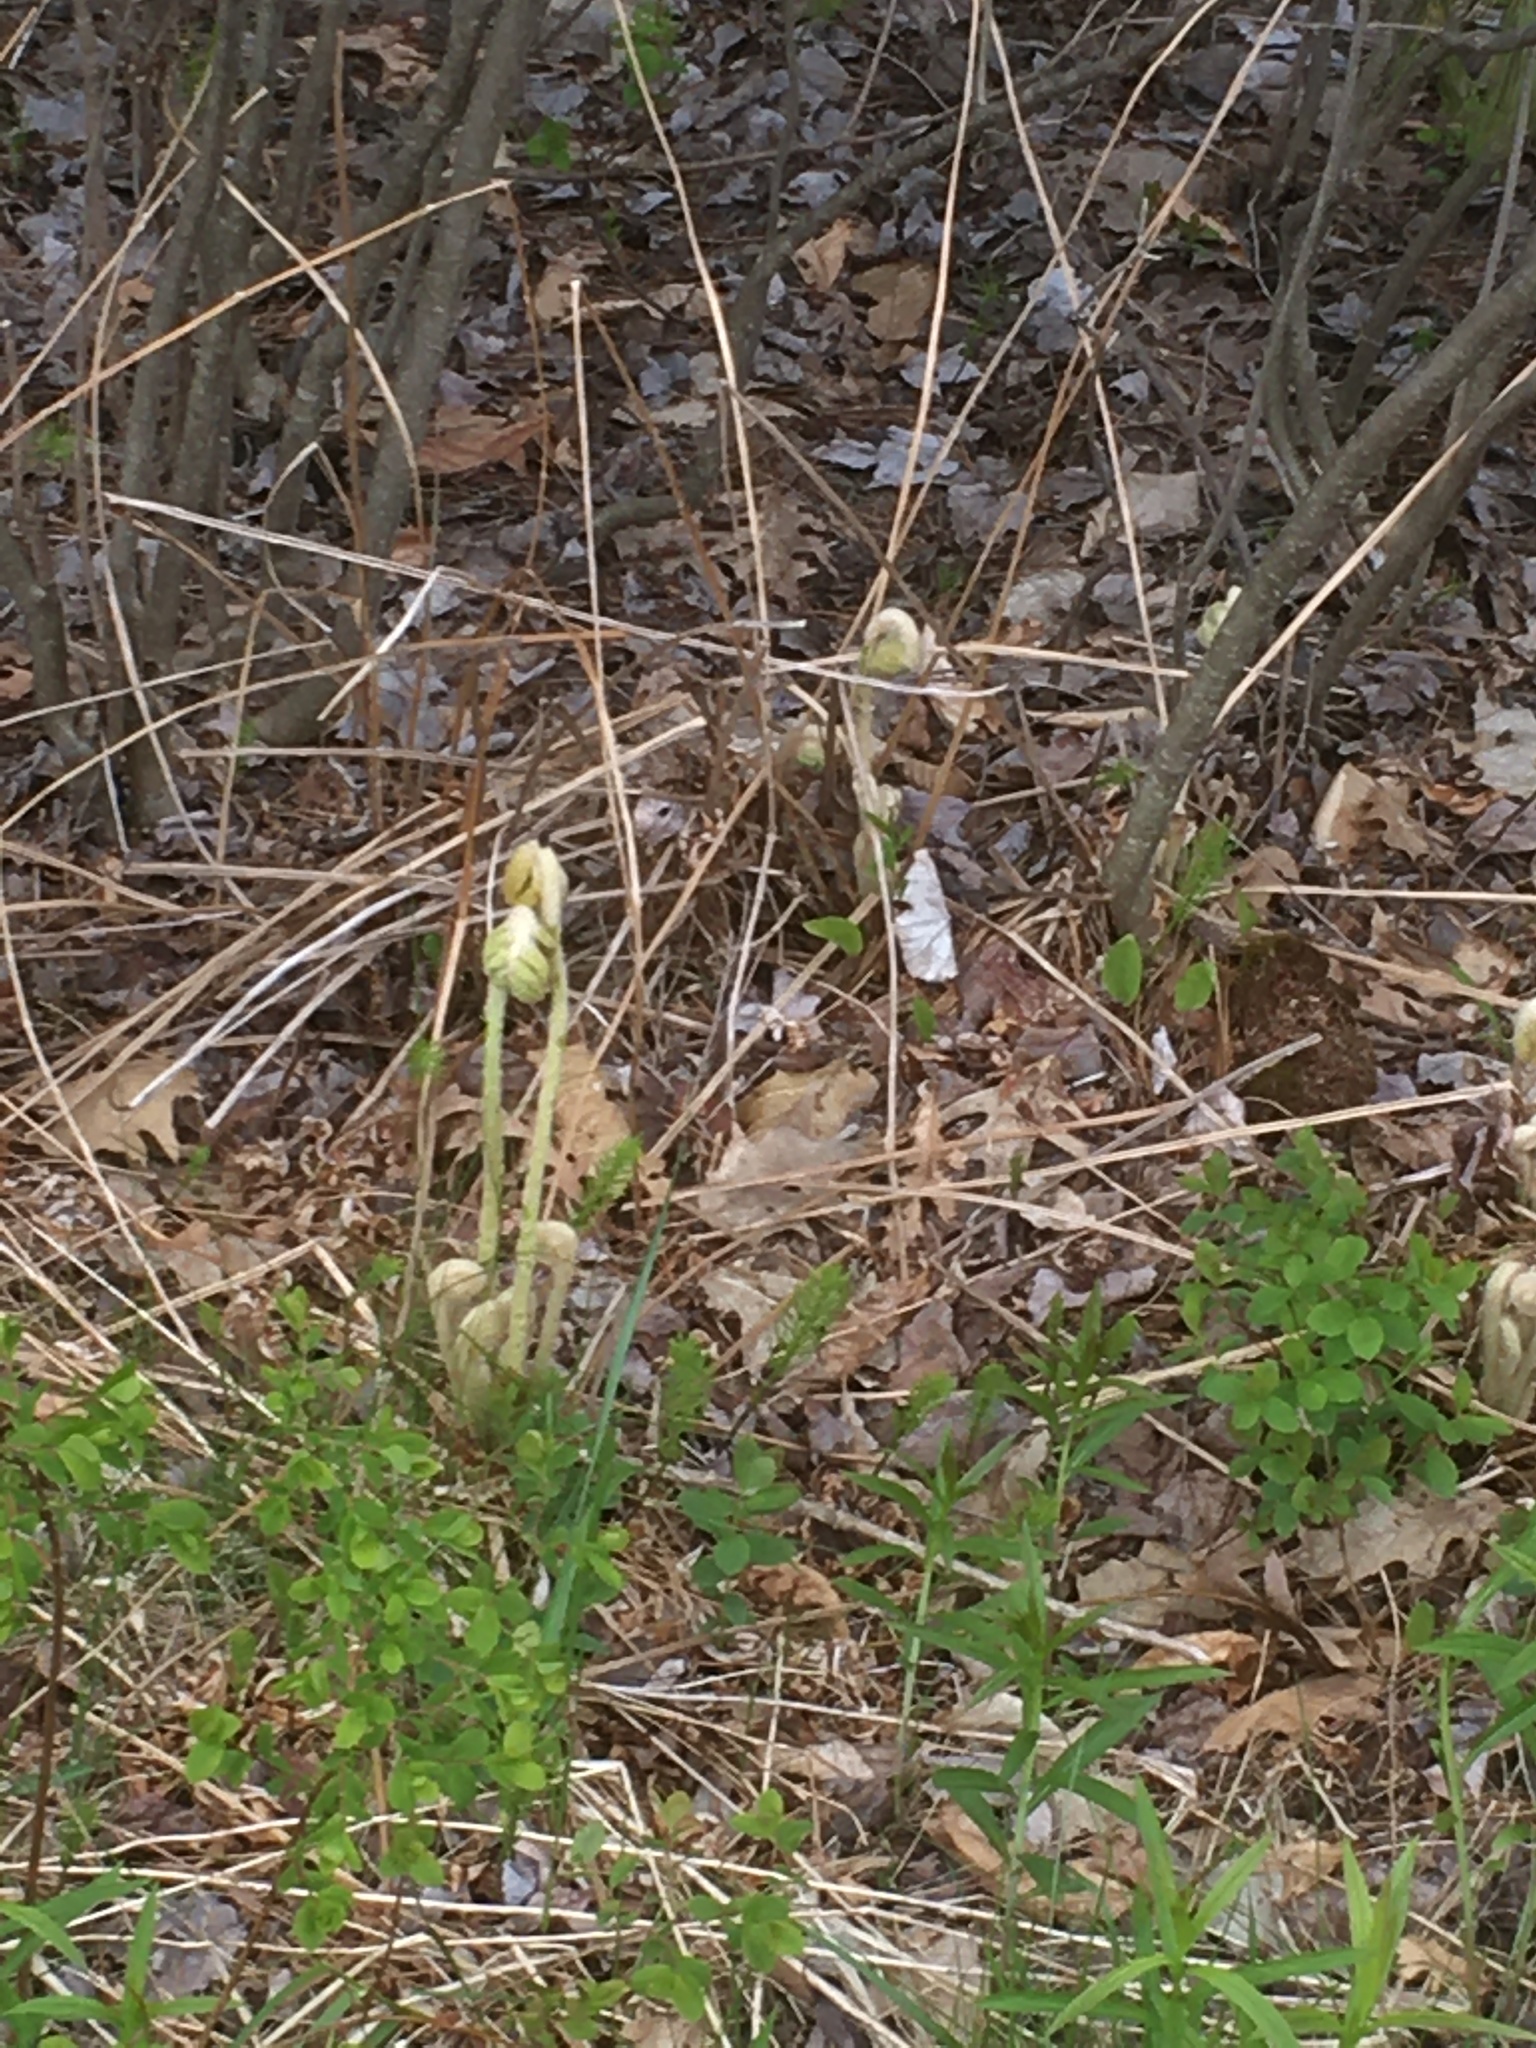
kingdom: Plantae
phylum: Tracheophyta
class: Polypodiopsida
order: Osmundales
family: Osmundaceae
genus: Osmundastrum
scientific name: Osmundastrum cinnamomeum
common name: Cinnamon fern
